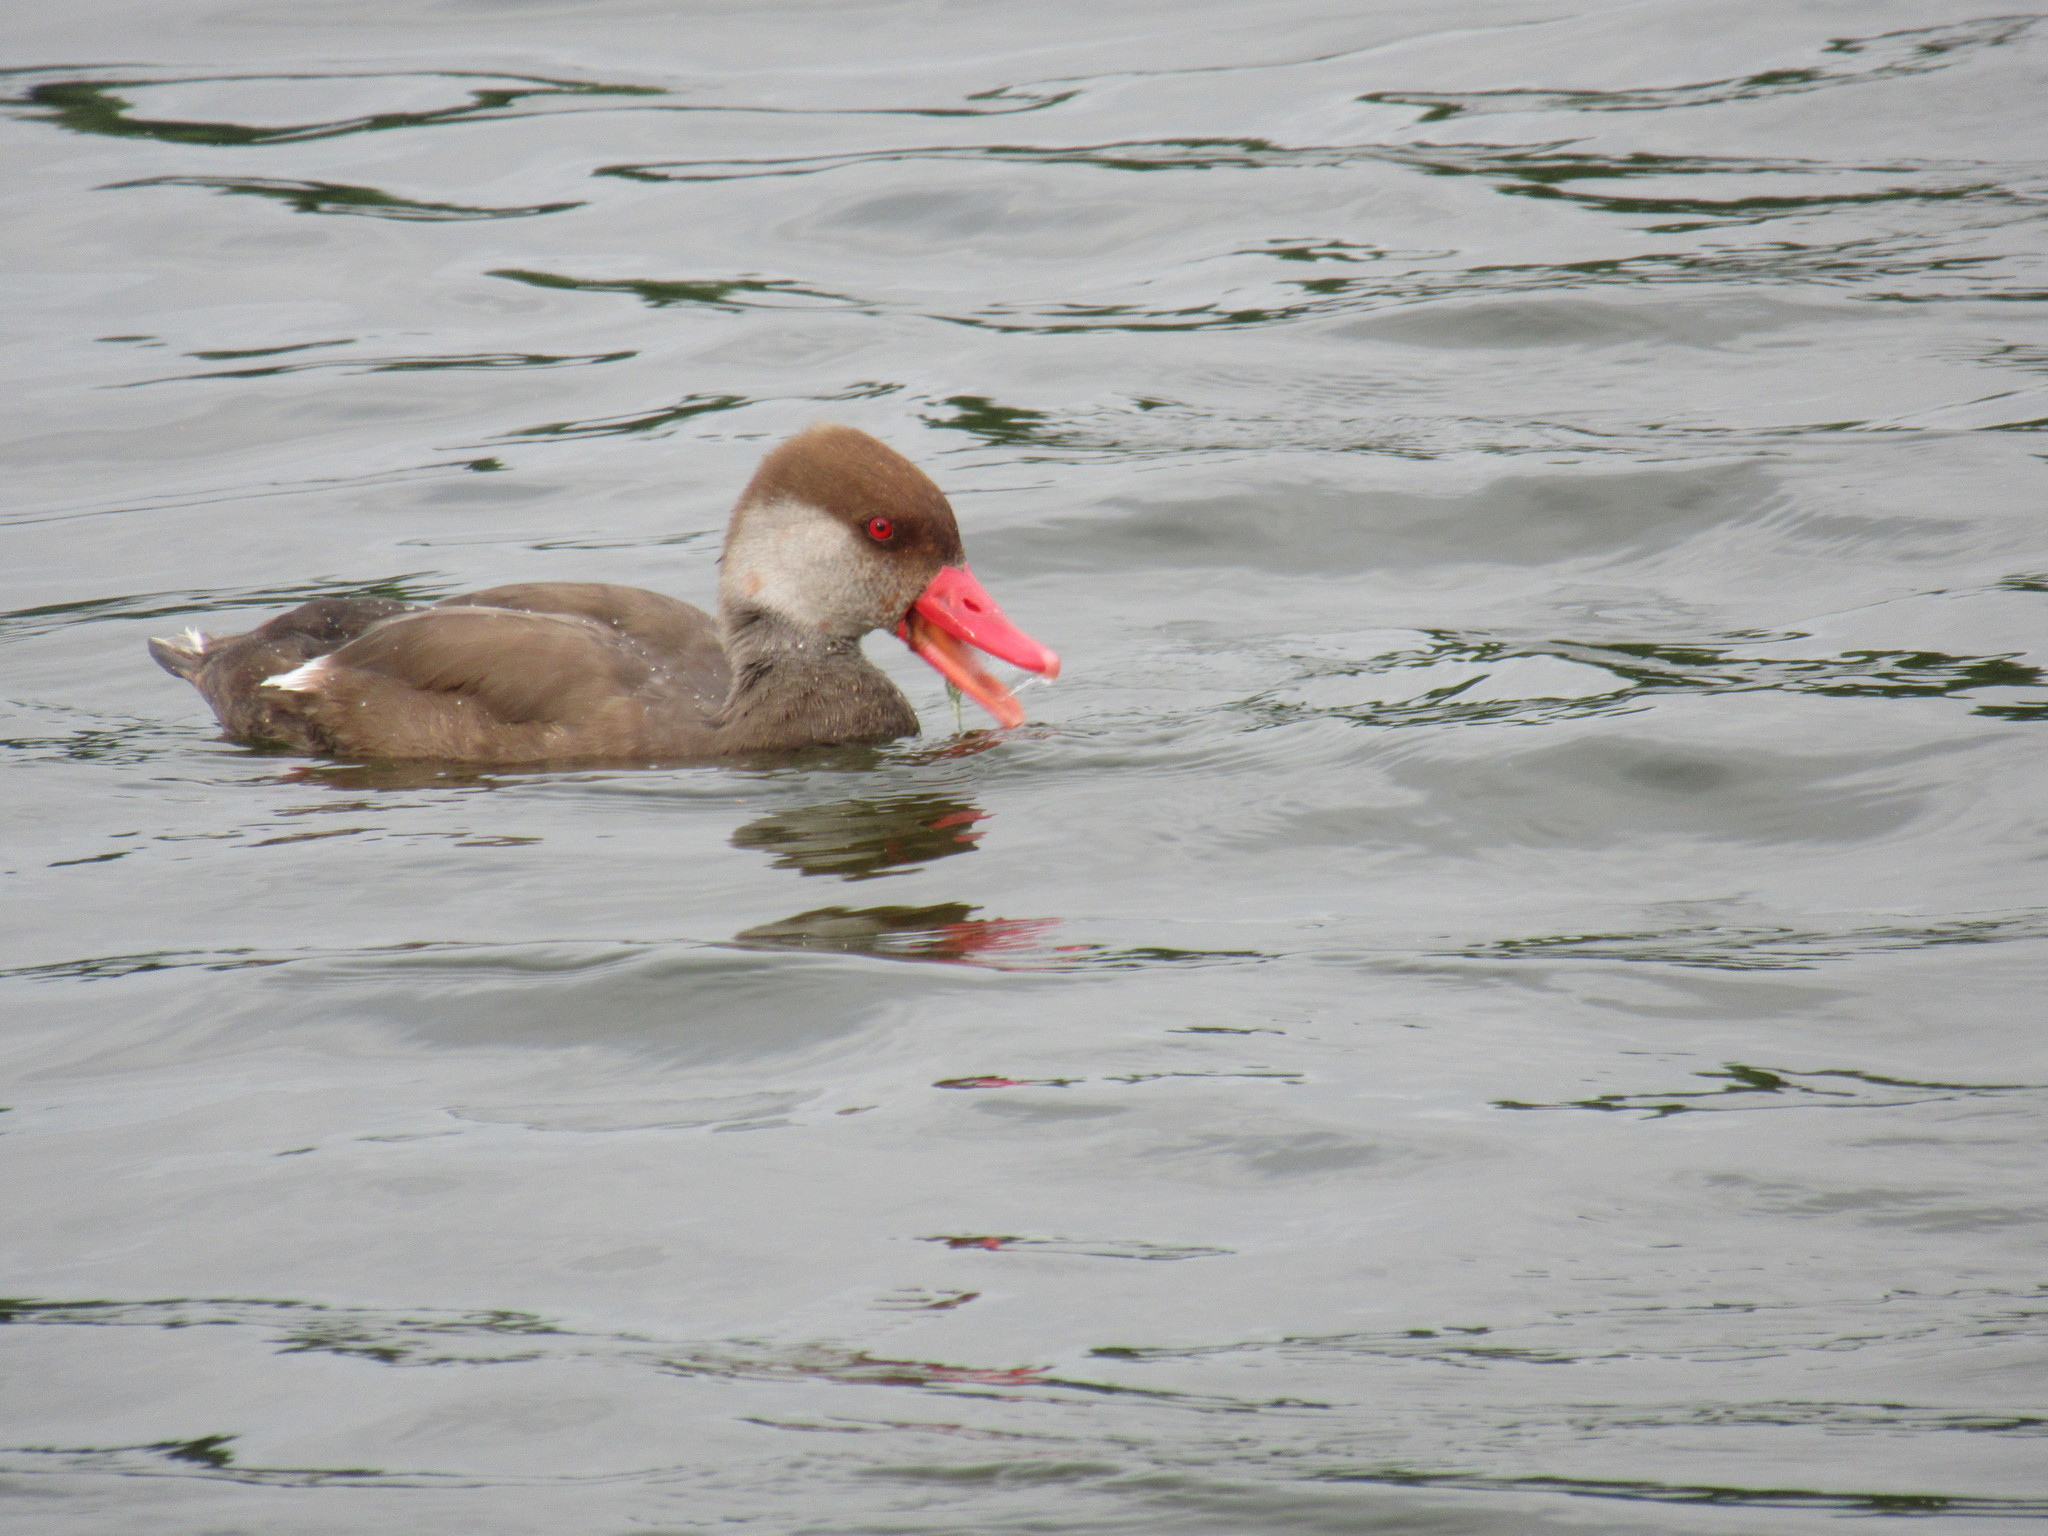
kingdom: Animalia
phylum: Chordata
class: Aves
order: Anseriformes
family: Anatidae
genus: Netta
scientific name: Netta rufina
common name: Red-crested pochard
